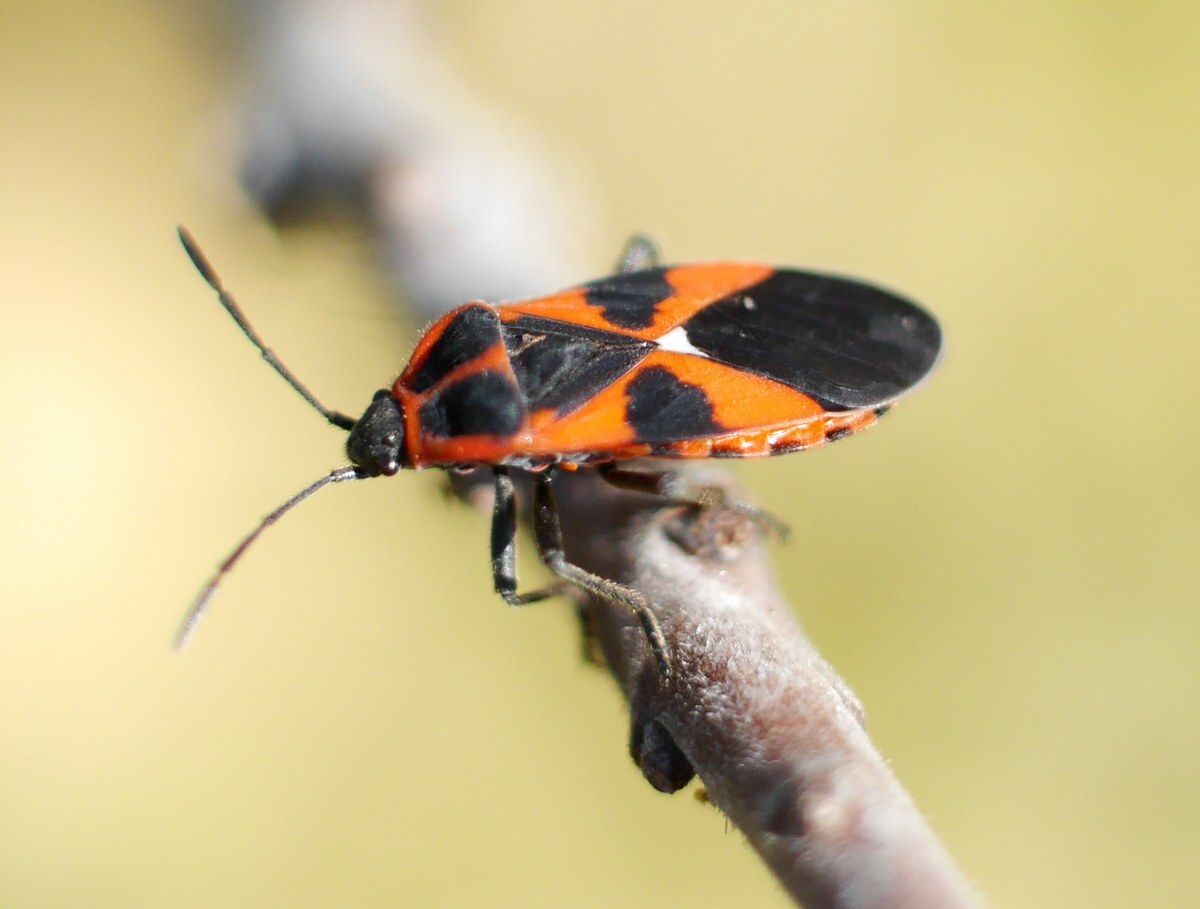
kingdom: Animalia
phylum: Arthropoda
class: Insecta
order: Hemiptera
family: Lygaeidae
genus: Tropidothorax
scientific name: Tropidothorax leucopterus
